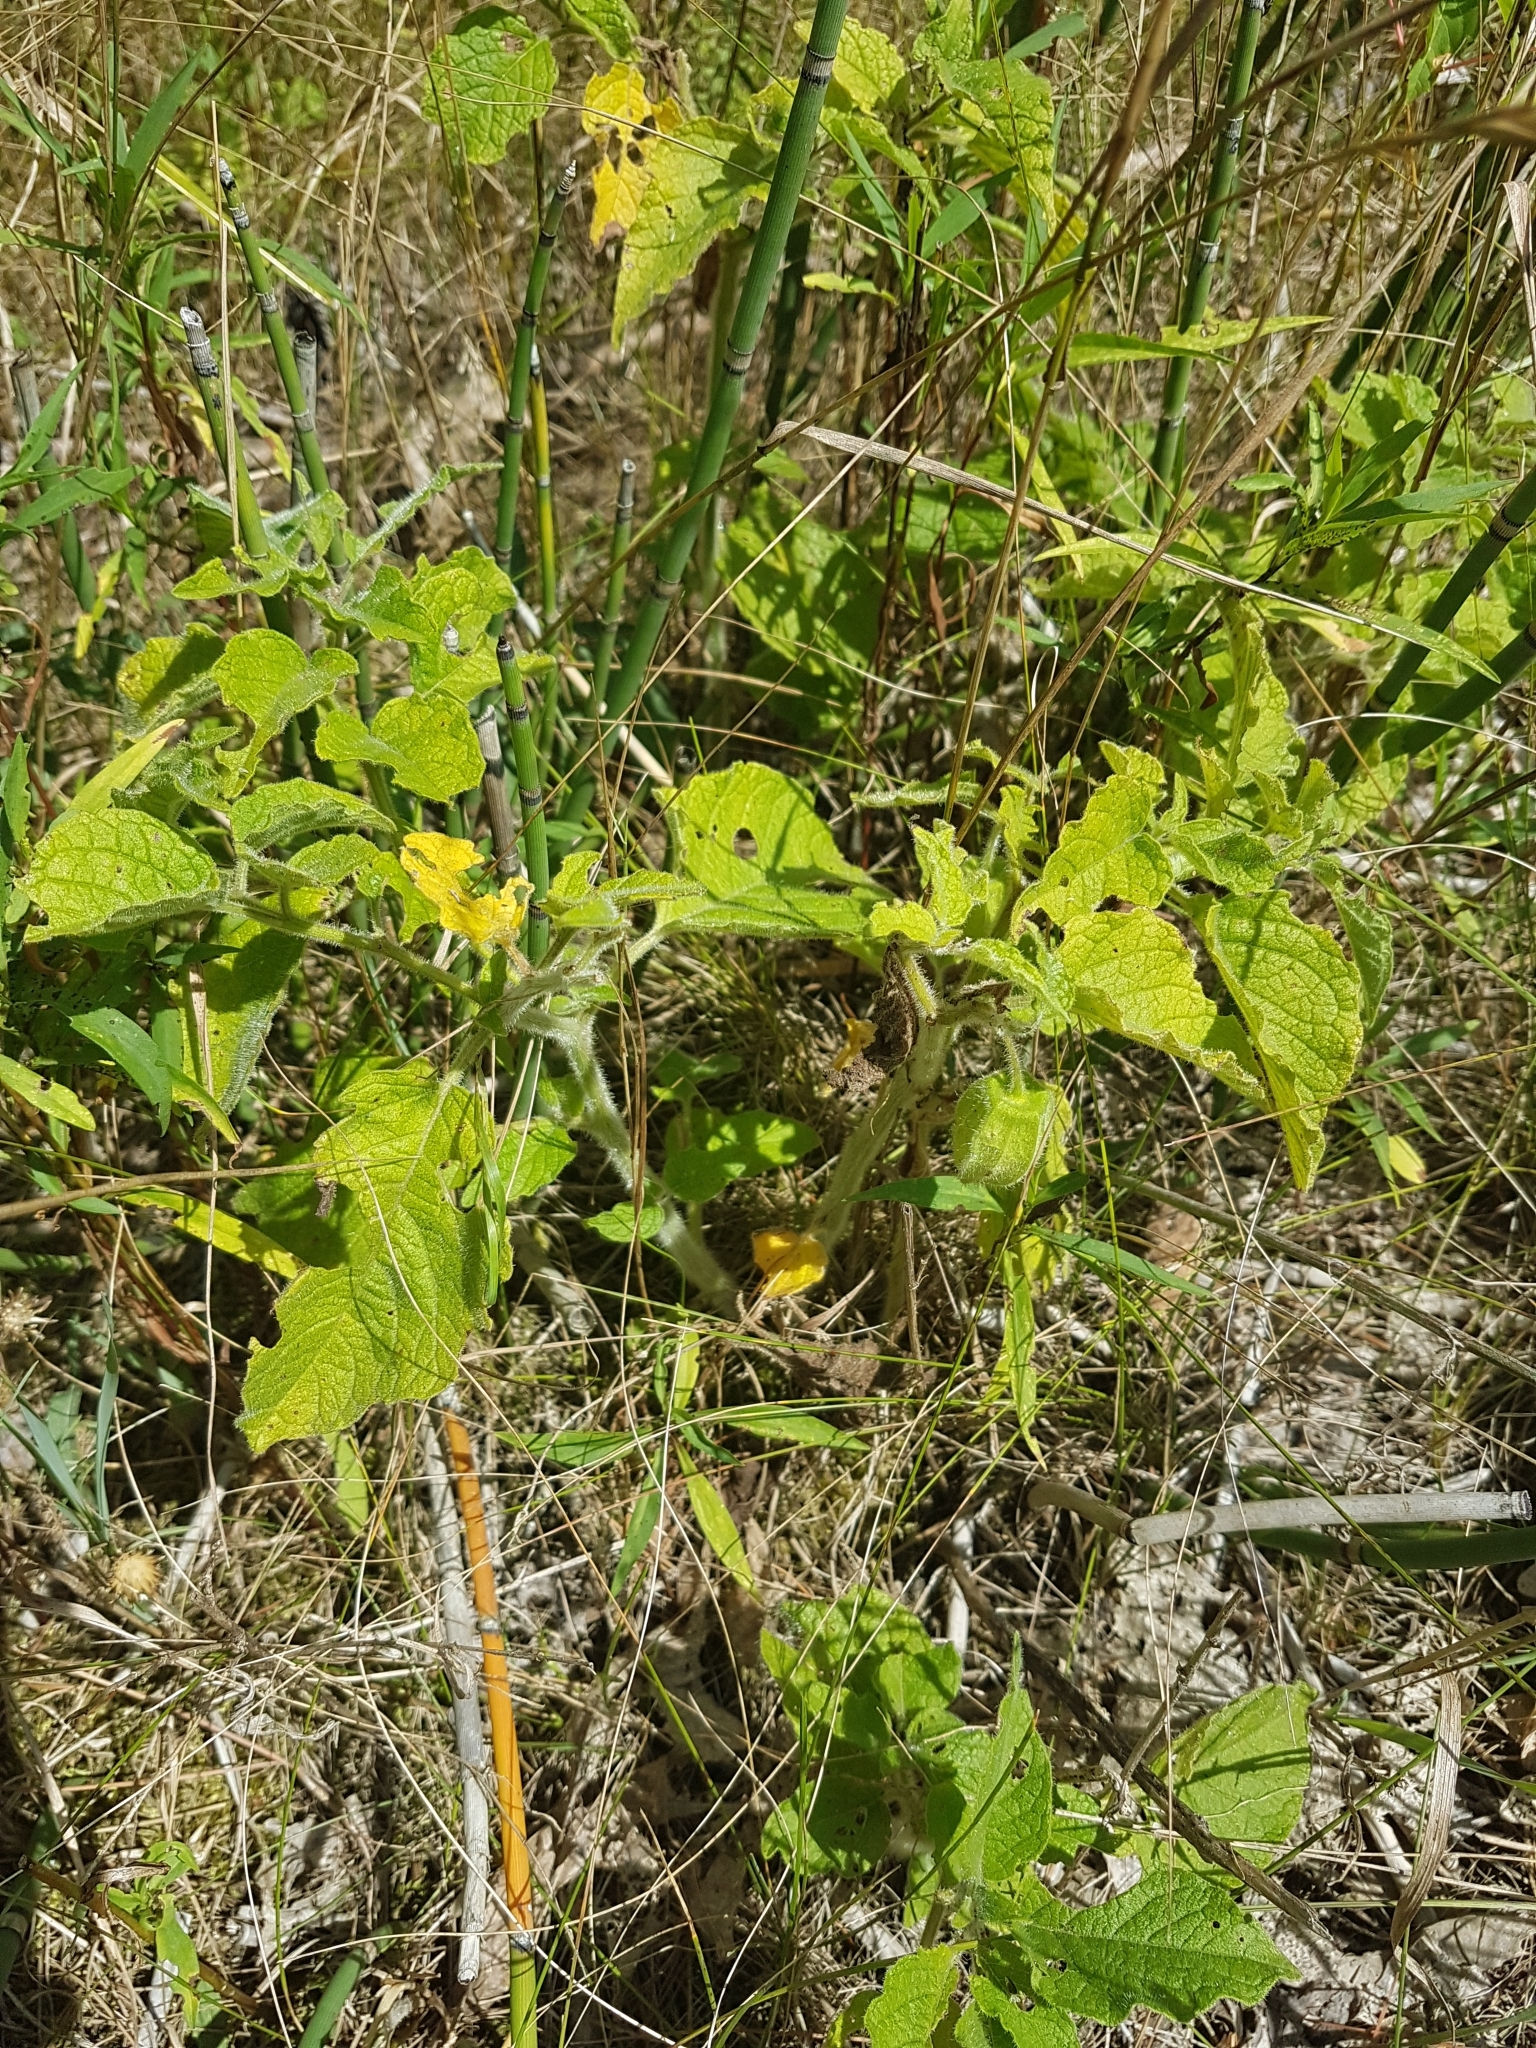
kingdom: Plantae
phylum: Tracheophyta
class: Magnoliopsida
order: Solanales
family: Solanaceae
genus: Physalis
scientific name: Physalis heterophylla
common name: Clammy ground-cherry
